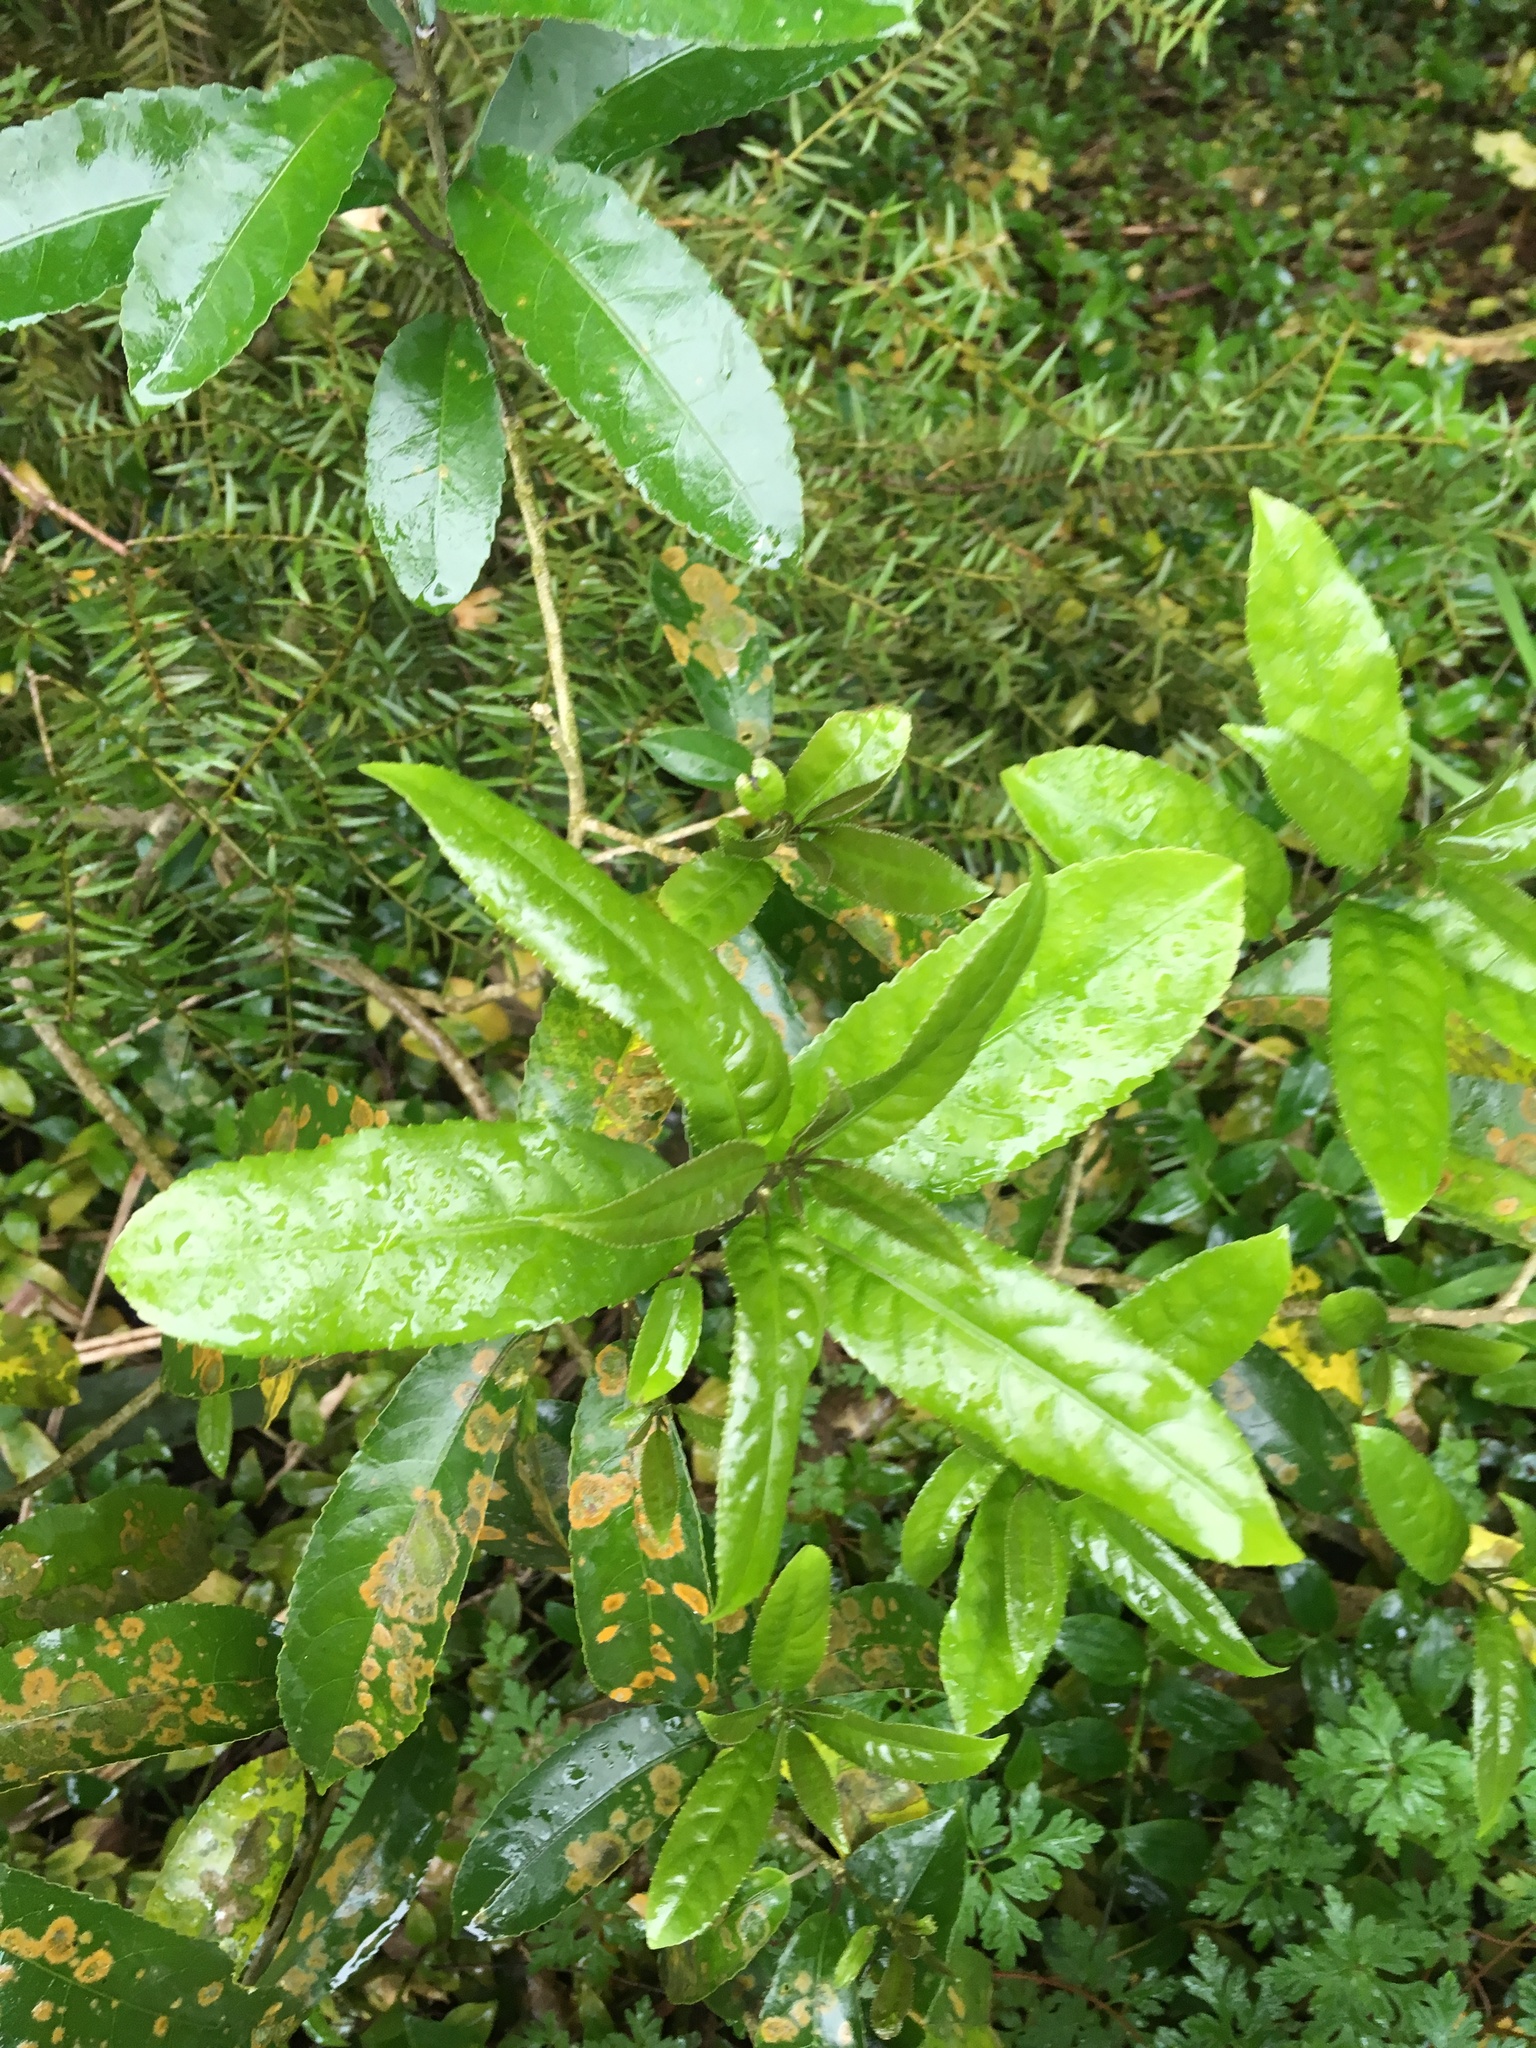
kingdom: Plantae
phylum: Tracheophyta
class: Magnoliopsida
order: Malpighiales
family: Violaceae
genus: Melicytus
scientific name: Melicytus ramiflorus
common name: Mahoe
